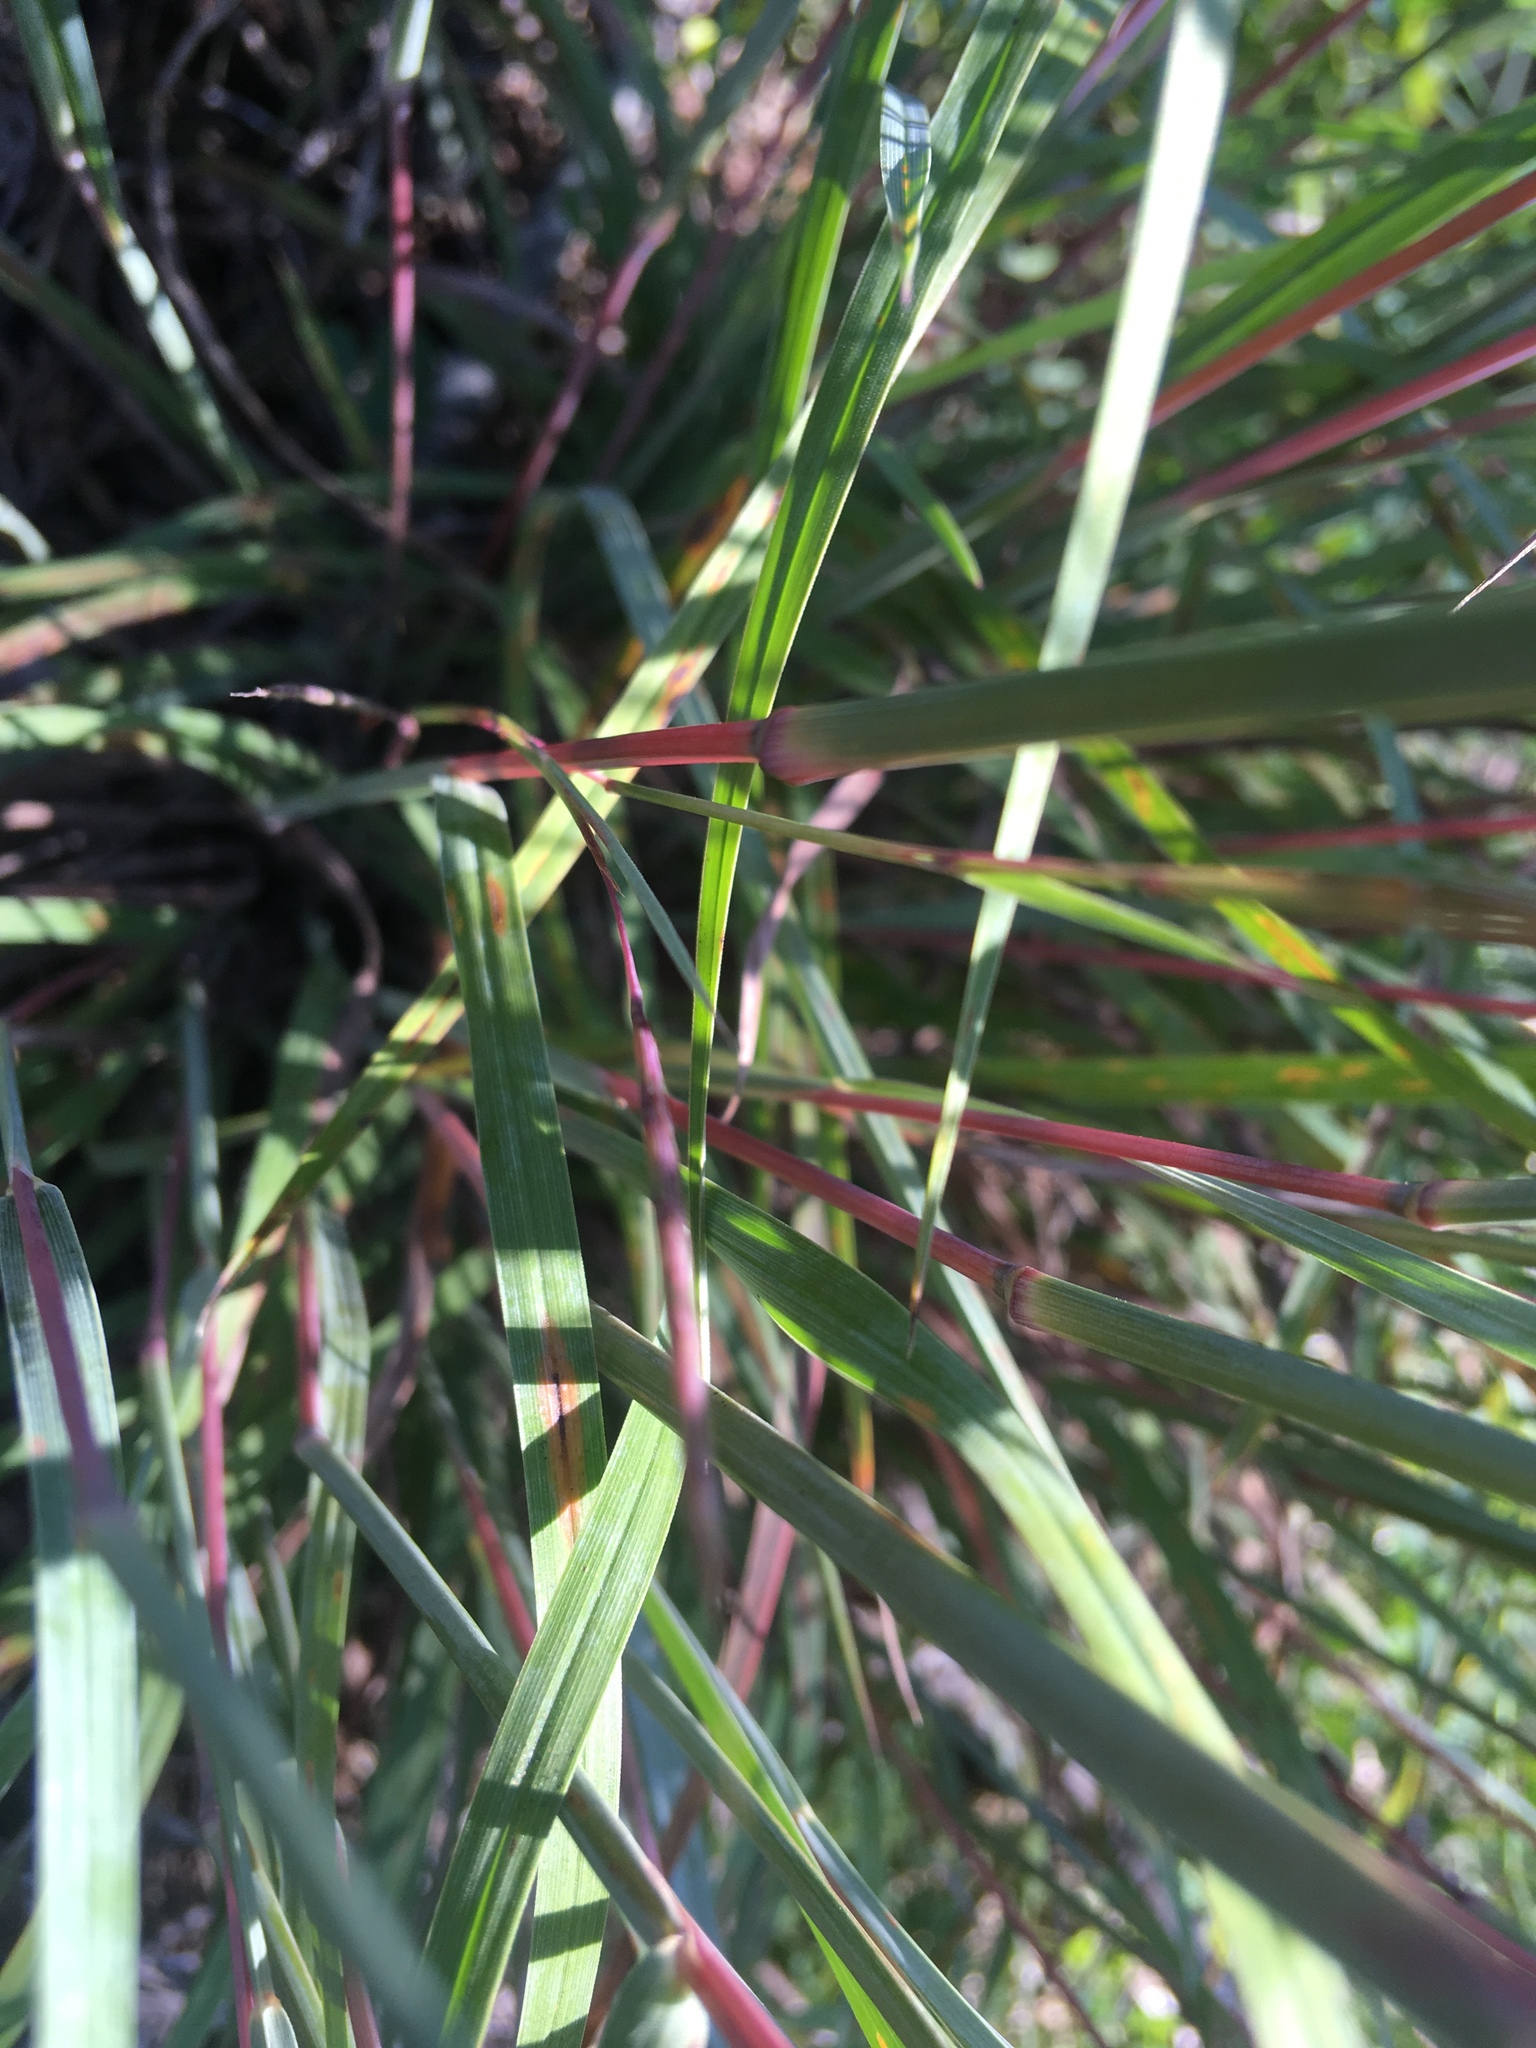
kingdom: Plantae
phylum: Tracheophyta
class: Liliopsida
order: Poales
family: Poaceae
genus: Schizachyrium
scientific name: Schizachyrium scoparium
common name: Little bluestem
